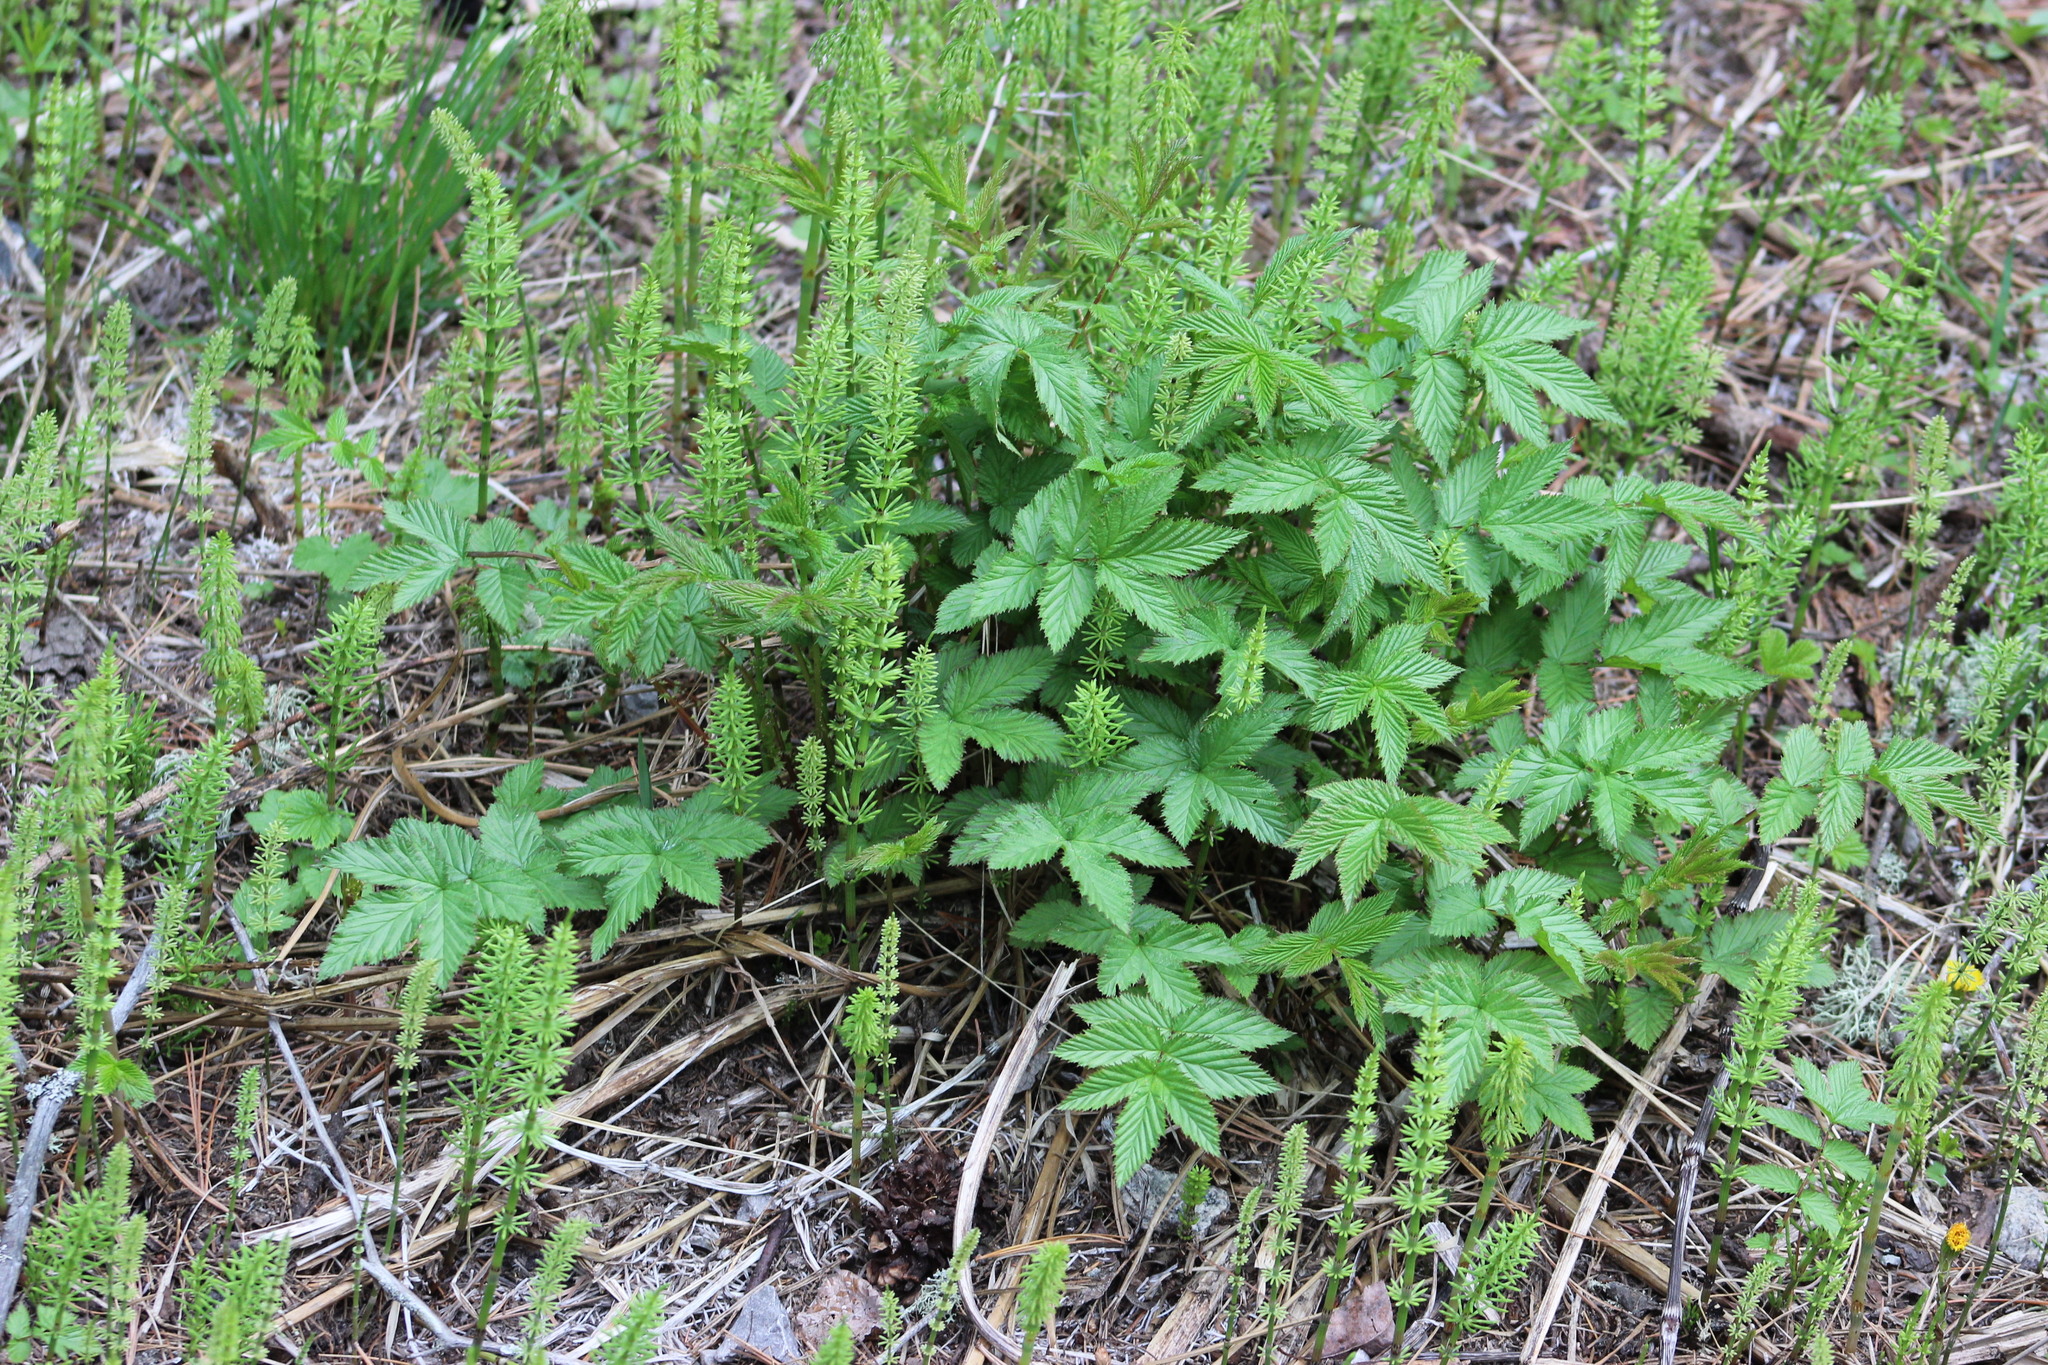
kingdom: Plantae
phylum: Tracheophyta
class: Magnoliopsida
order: Rosales
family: Rosaceae
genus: Filipendula
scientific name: Filipendula ulmaria
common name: Meadowsweet
